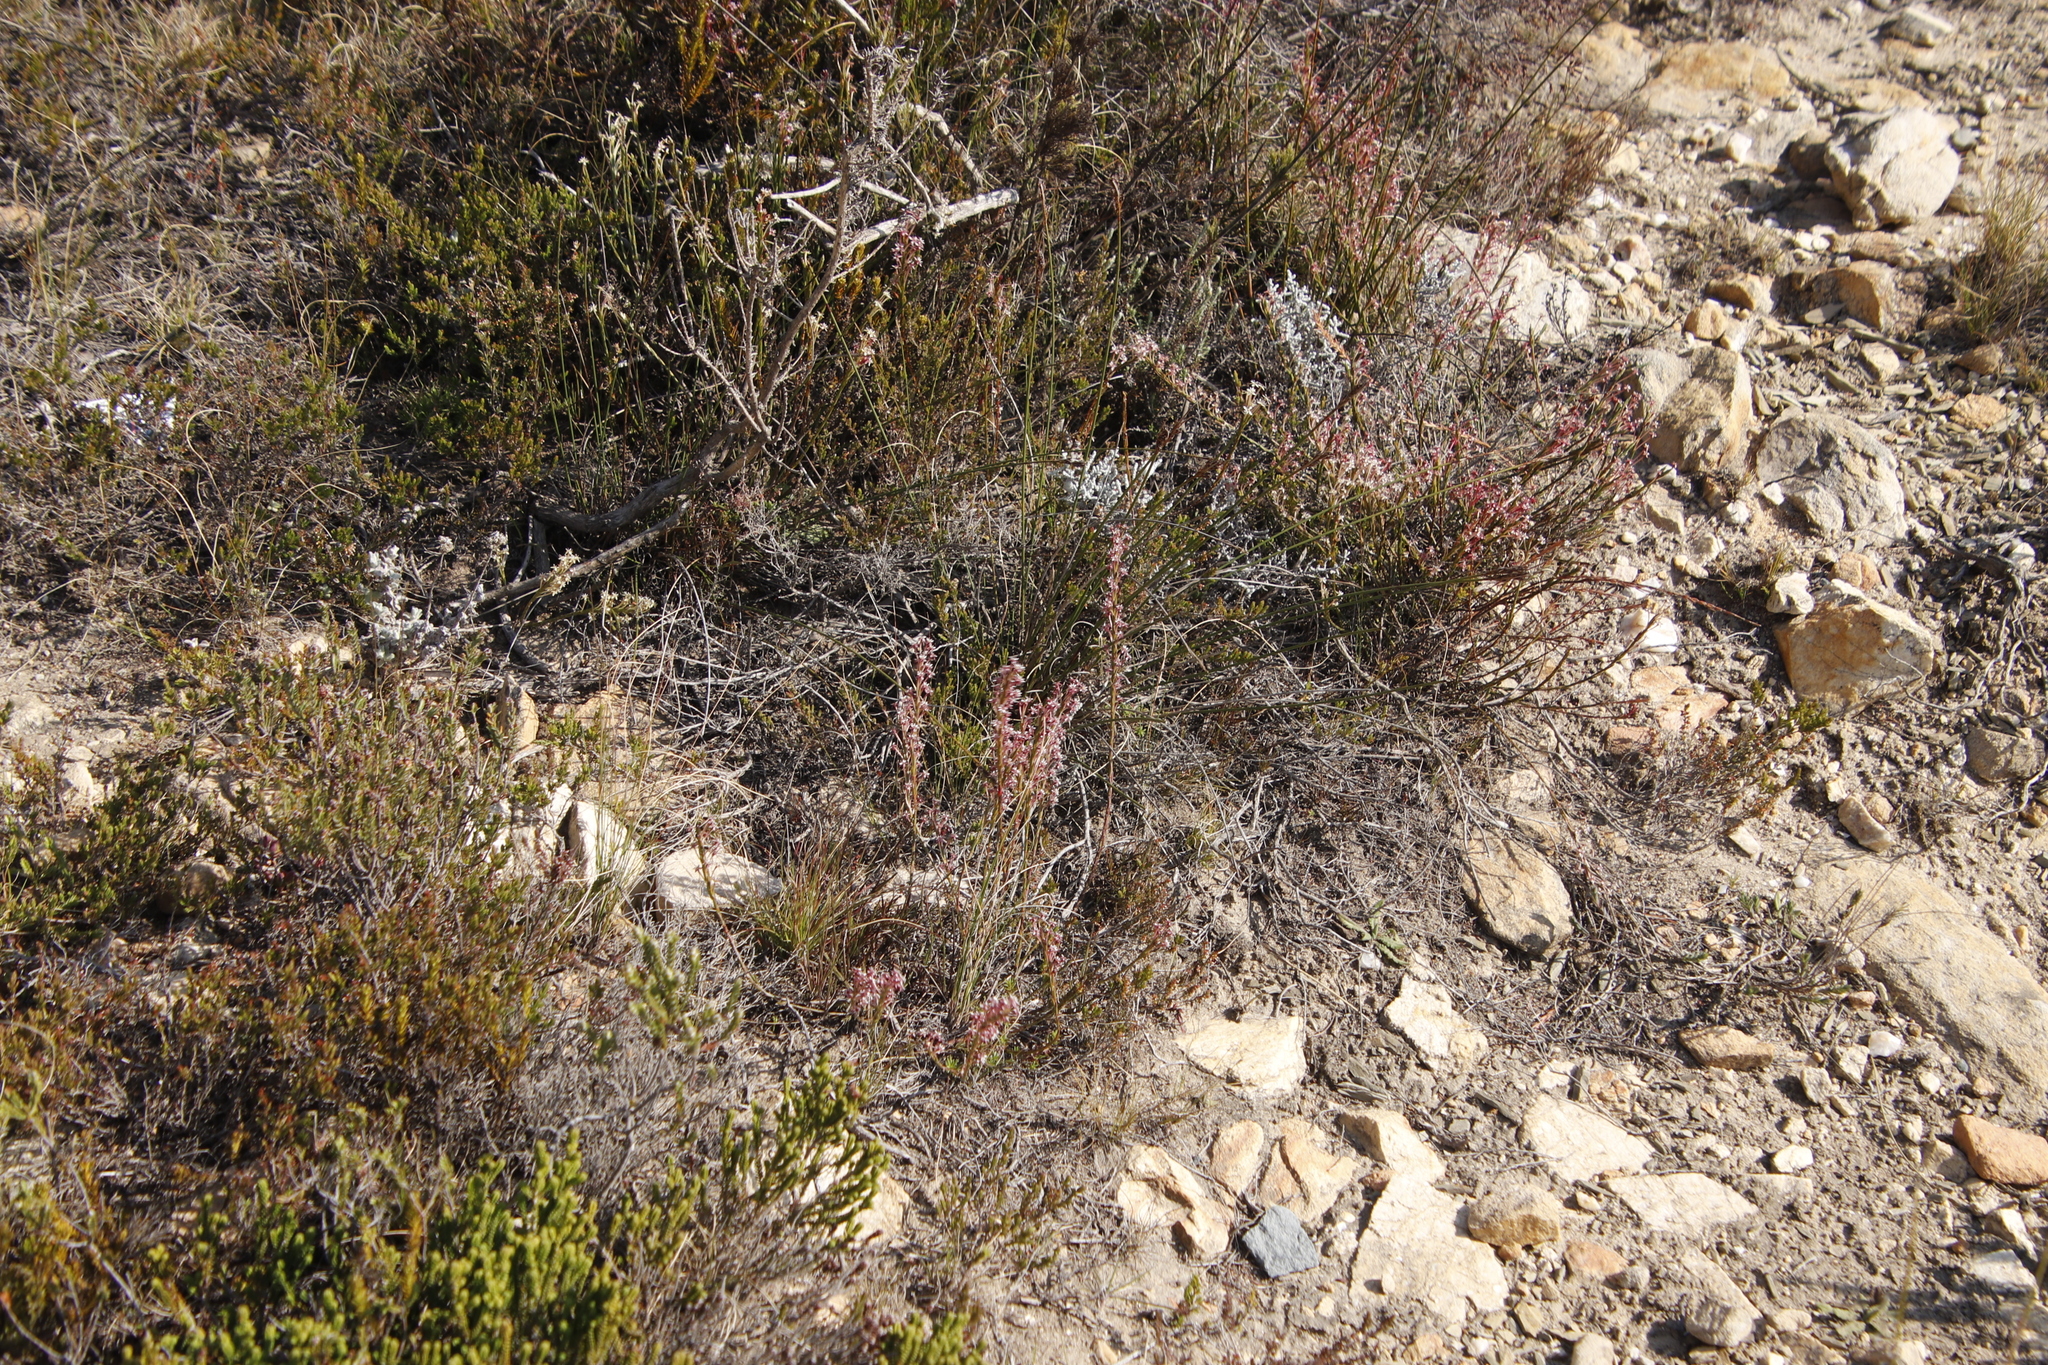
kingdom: Plantae
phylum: Tracheophyta
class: Magnoliopsida
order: Malvales
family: Thymelaeaceae
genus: Struthiola
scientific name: Struthiola macowanii
